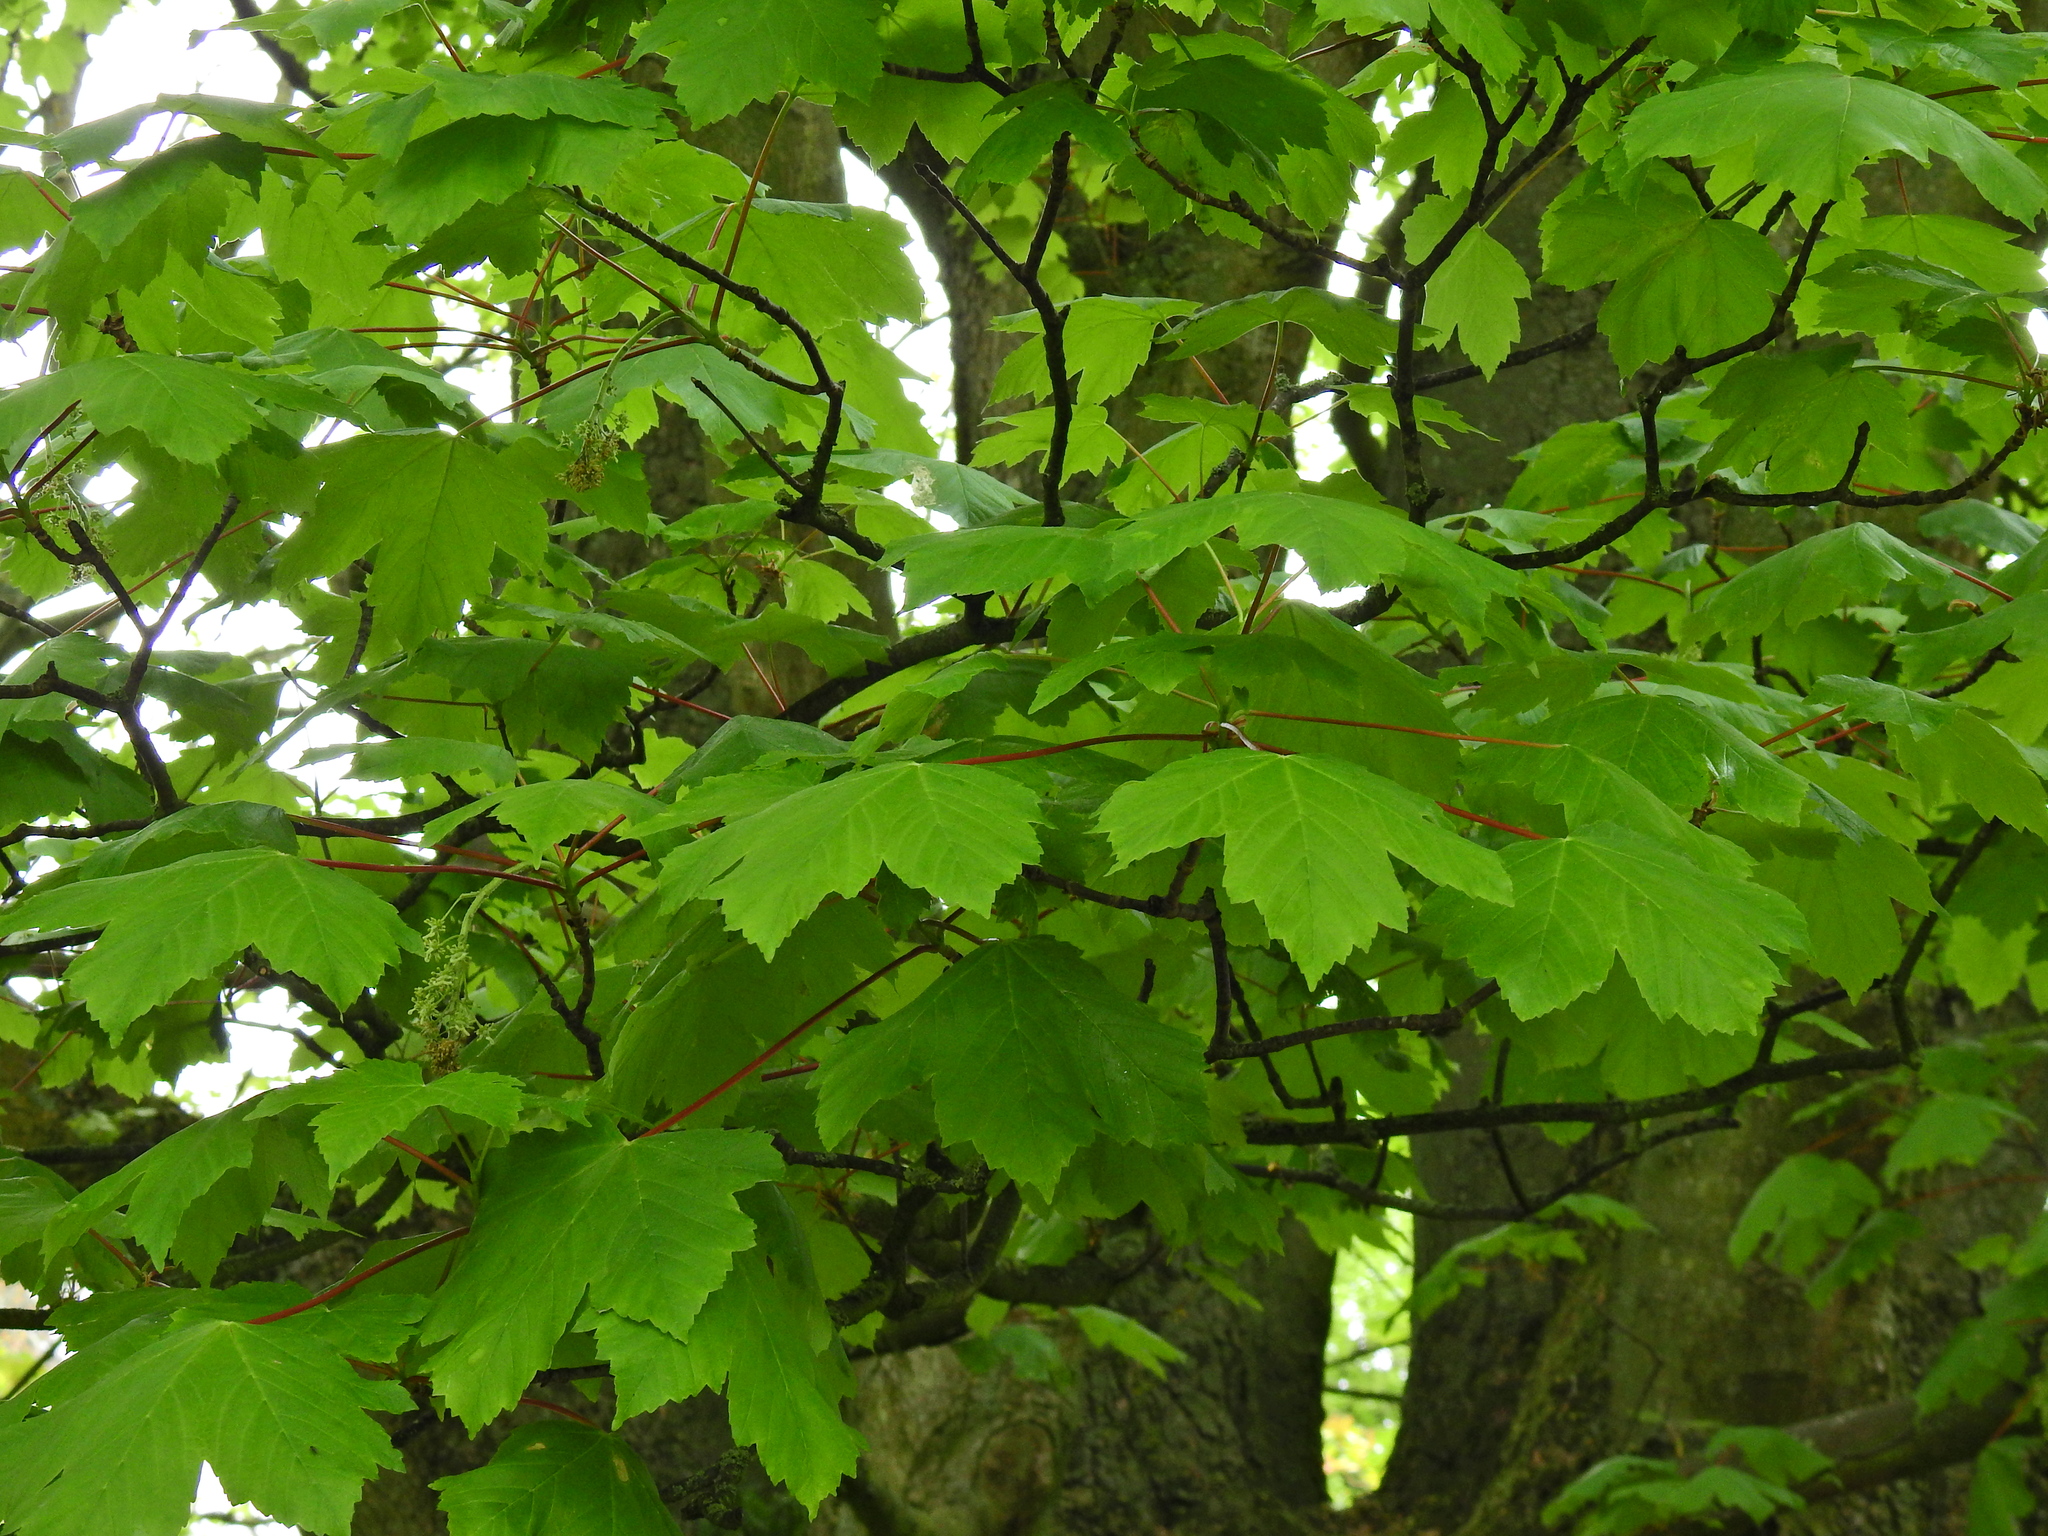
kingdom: Plantae
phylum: Tracheophyta
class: Magnoliopsida
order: Sapindales
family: Sapindaceae
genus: Acer
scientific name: Acer pseudoplatanus
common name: Sycamore
